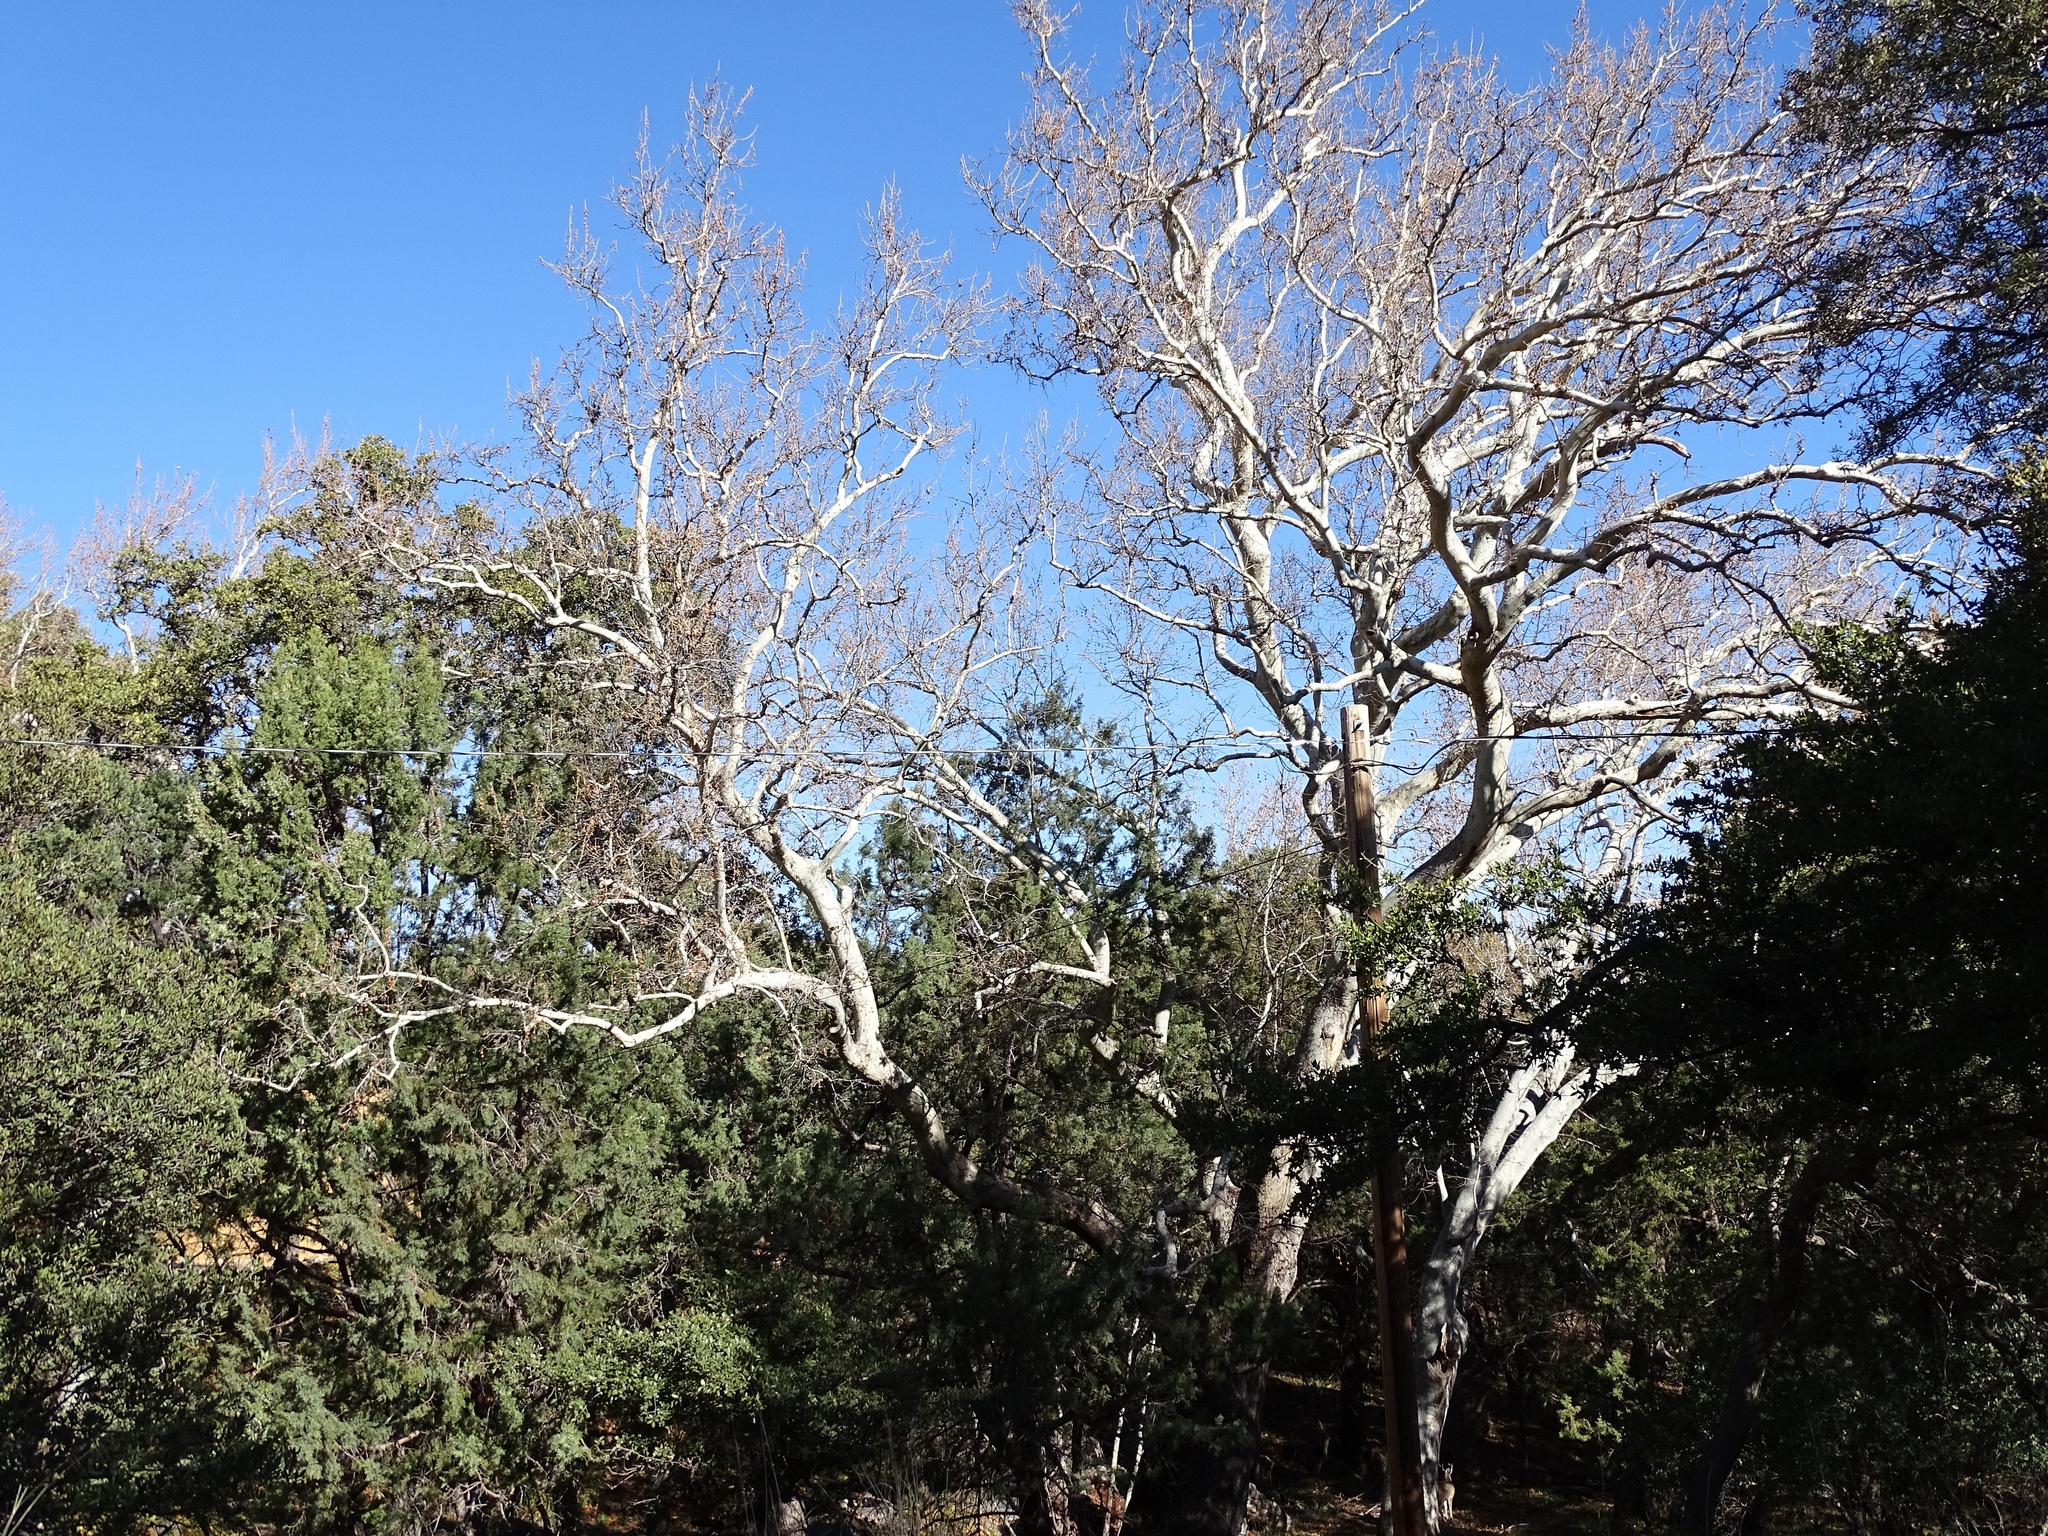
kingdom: Plantae
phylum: Tracheophyta
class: Magnoliopsida
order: Proteales
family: Platanaceae
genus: Platanus
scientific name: Platanus wrightii
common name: Arizona sycamore
